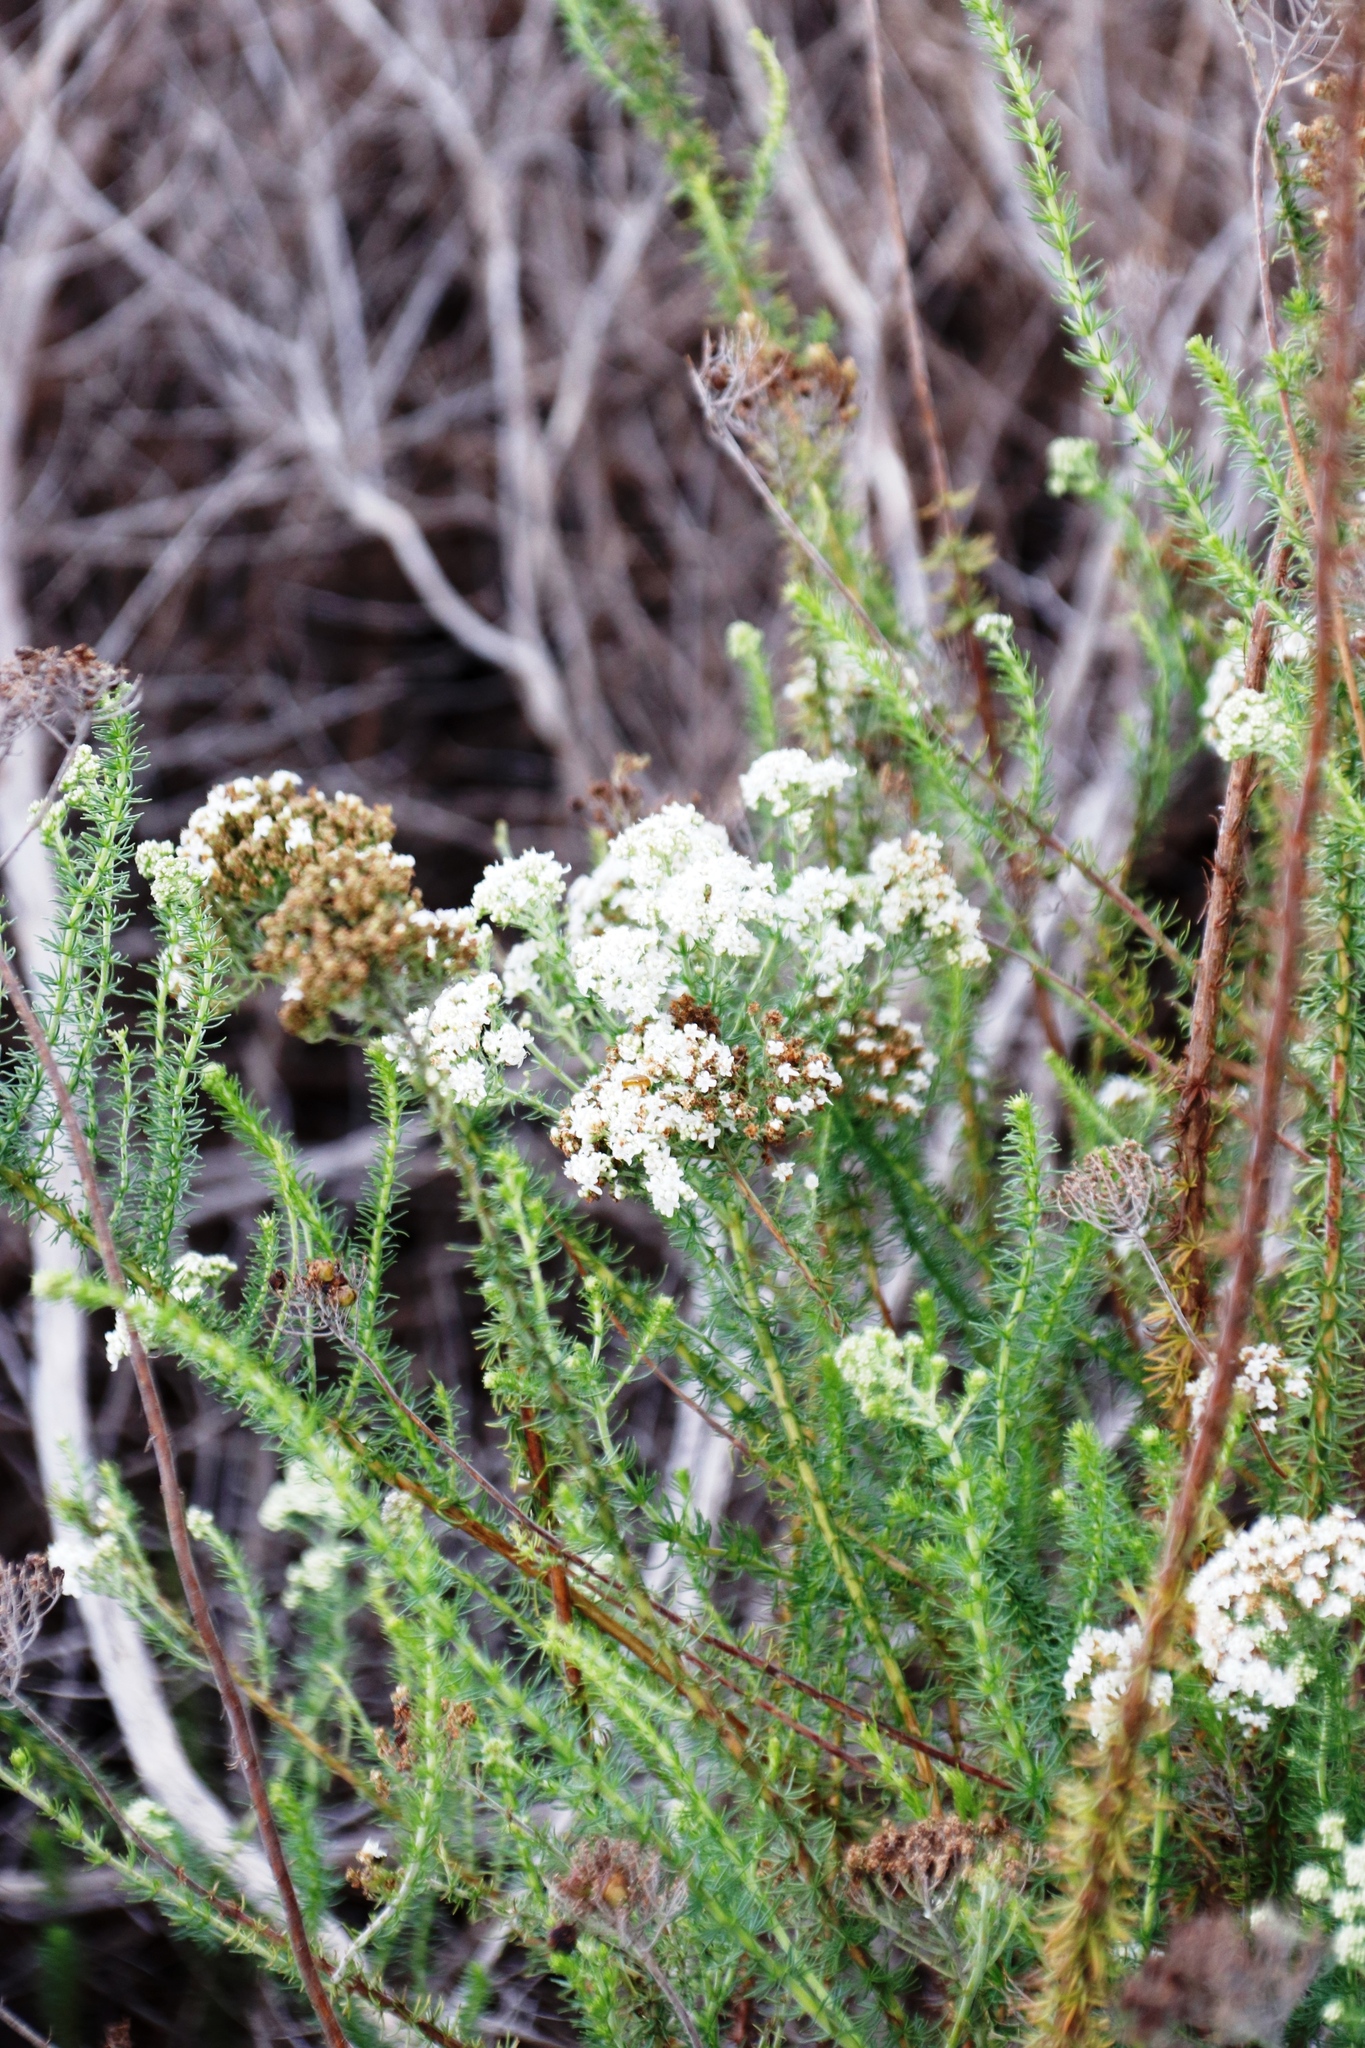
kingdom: Plantae
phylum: Tracheophyta
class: Magnoliopsida
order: Lamiales
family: Scrophulariaceae
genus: Selago
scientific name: Selago corymbosa
